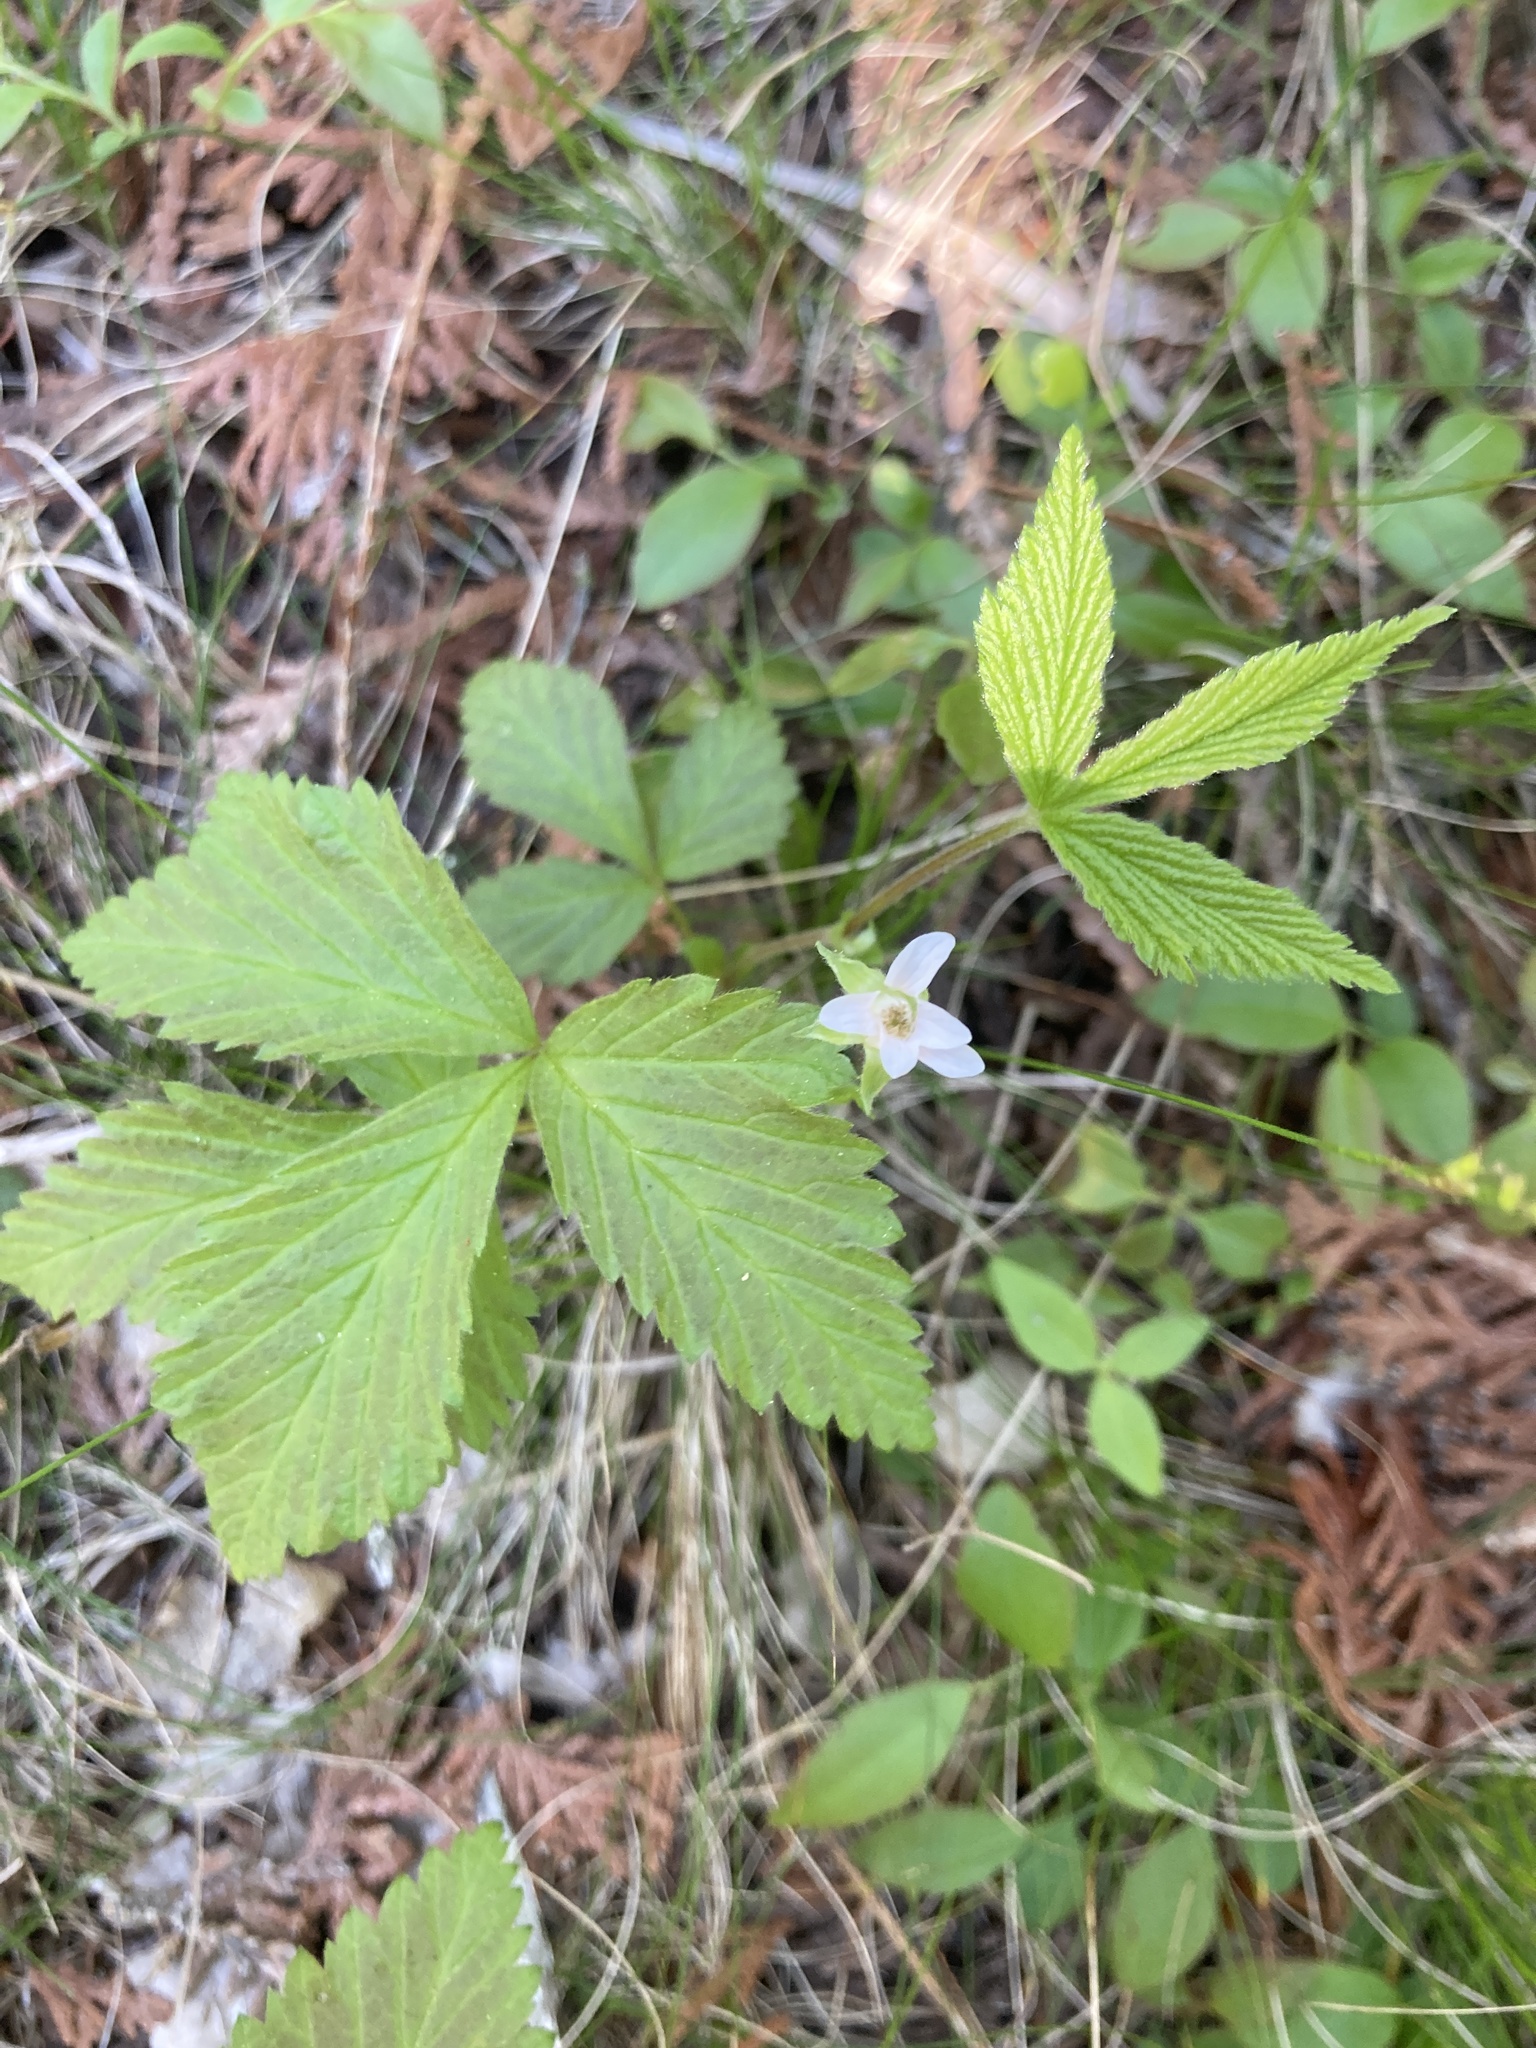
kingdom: Plantae
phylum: Tracheophyta
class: Magnoliopsida
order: Rosales
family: Rosaceae
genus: Rubus
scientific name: Rubus pubescens
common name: Dwarf raspberry
